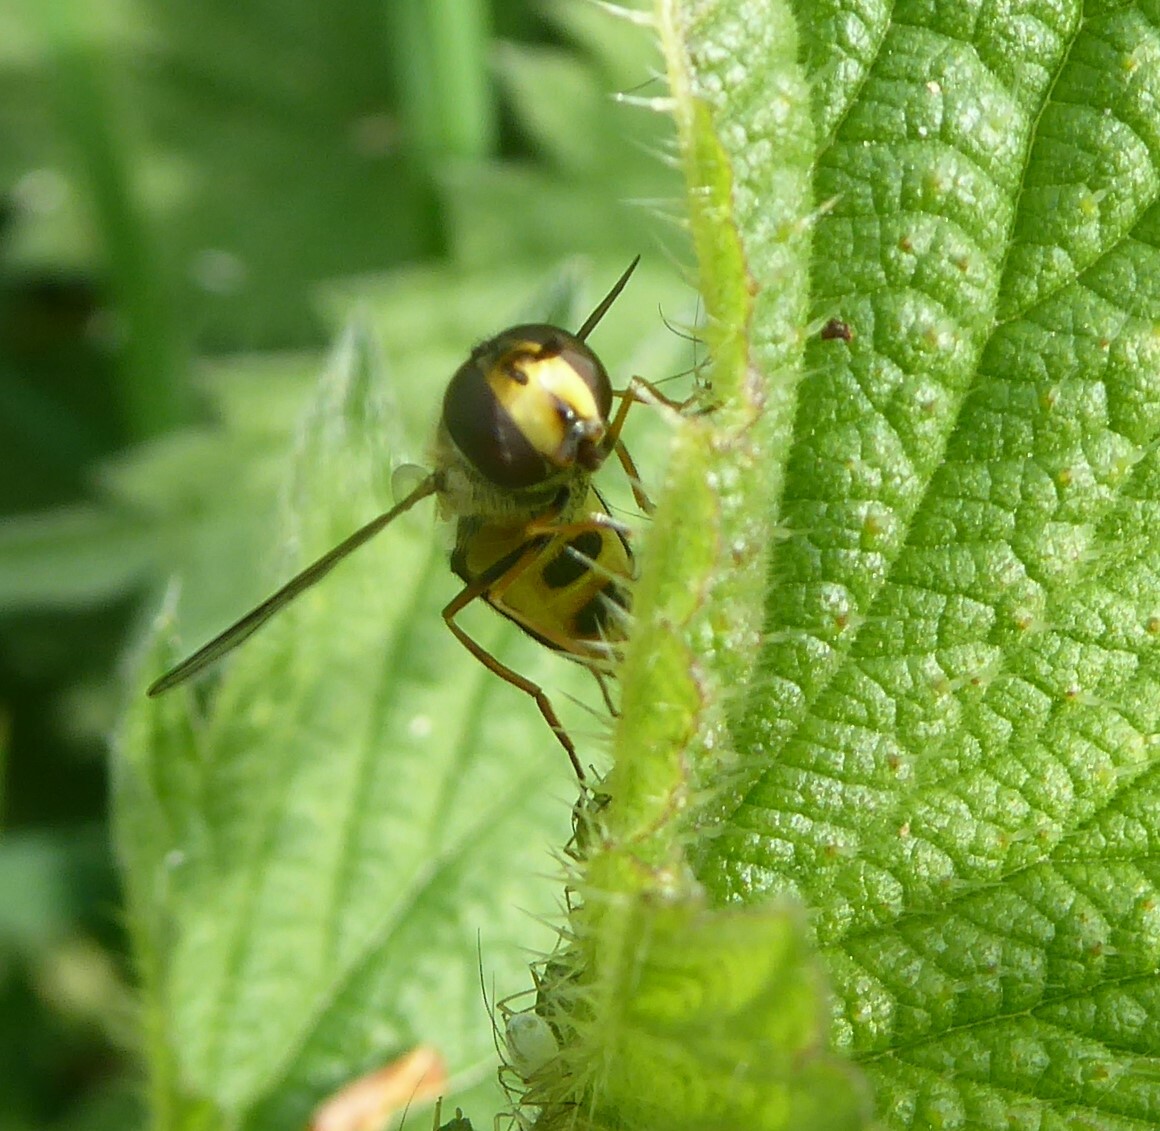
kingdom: Animalia
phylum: Arthropoda
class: Insecta
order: Diptera
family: Syrphidae
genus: Eupeodes
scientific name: Eupeodes
